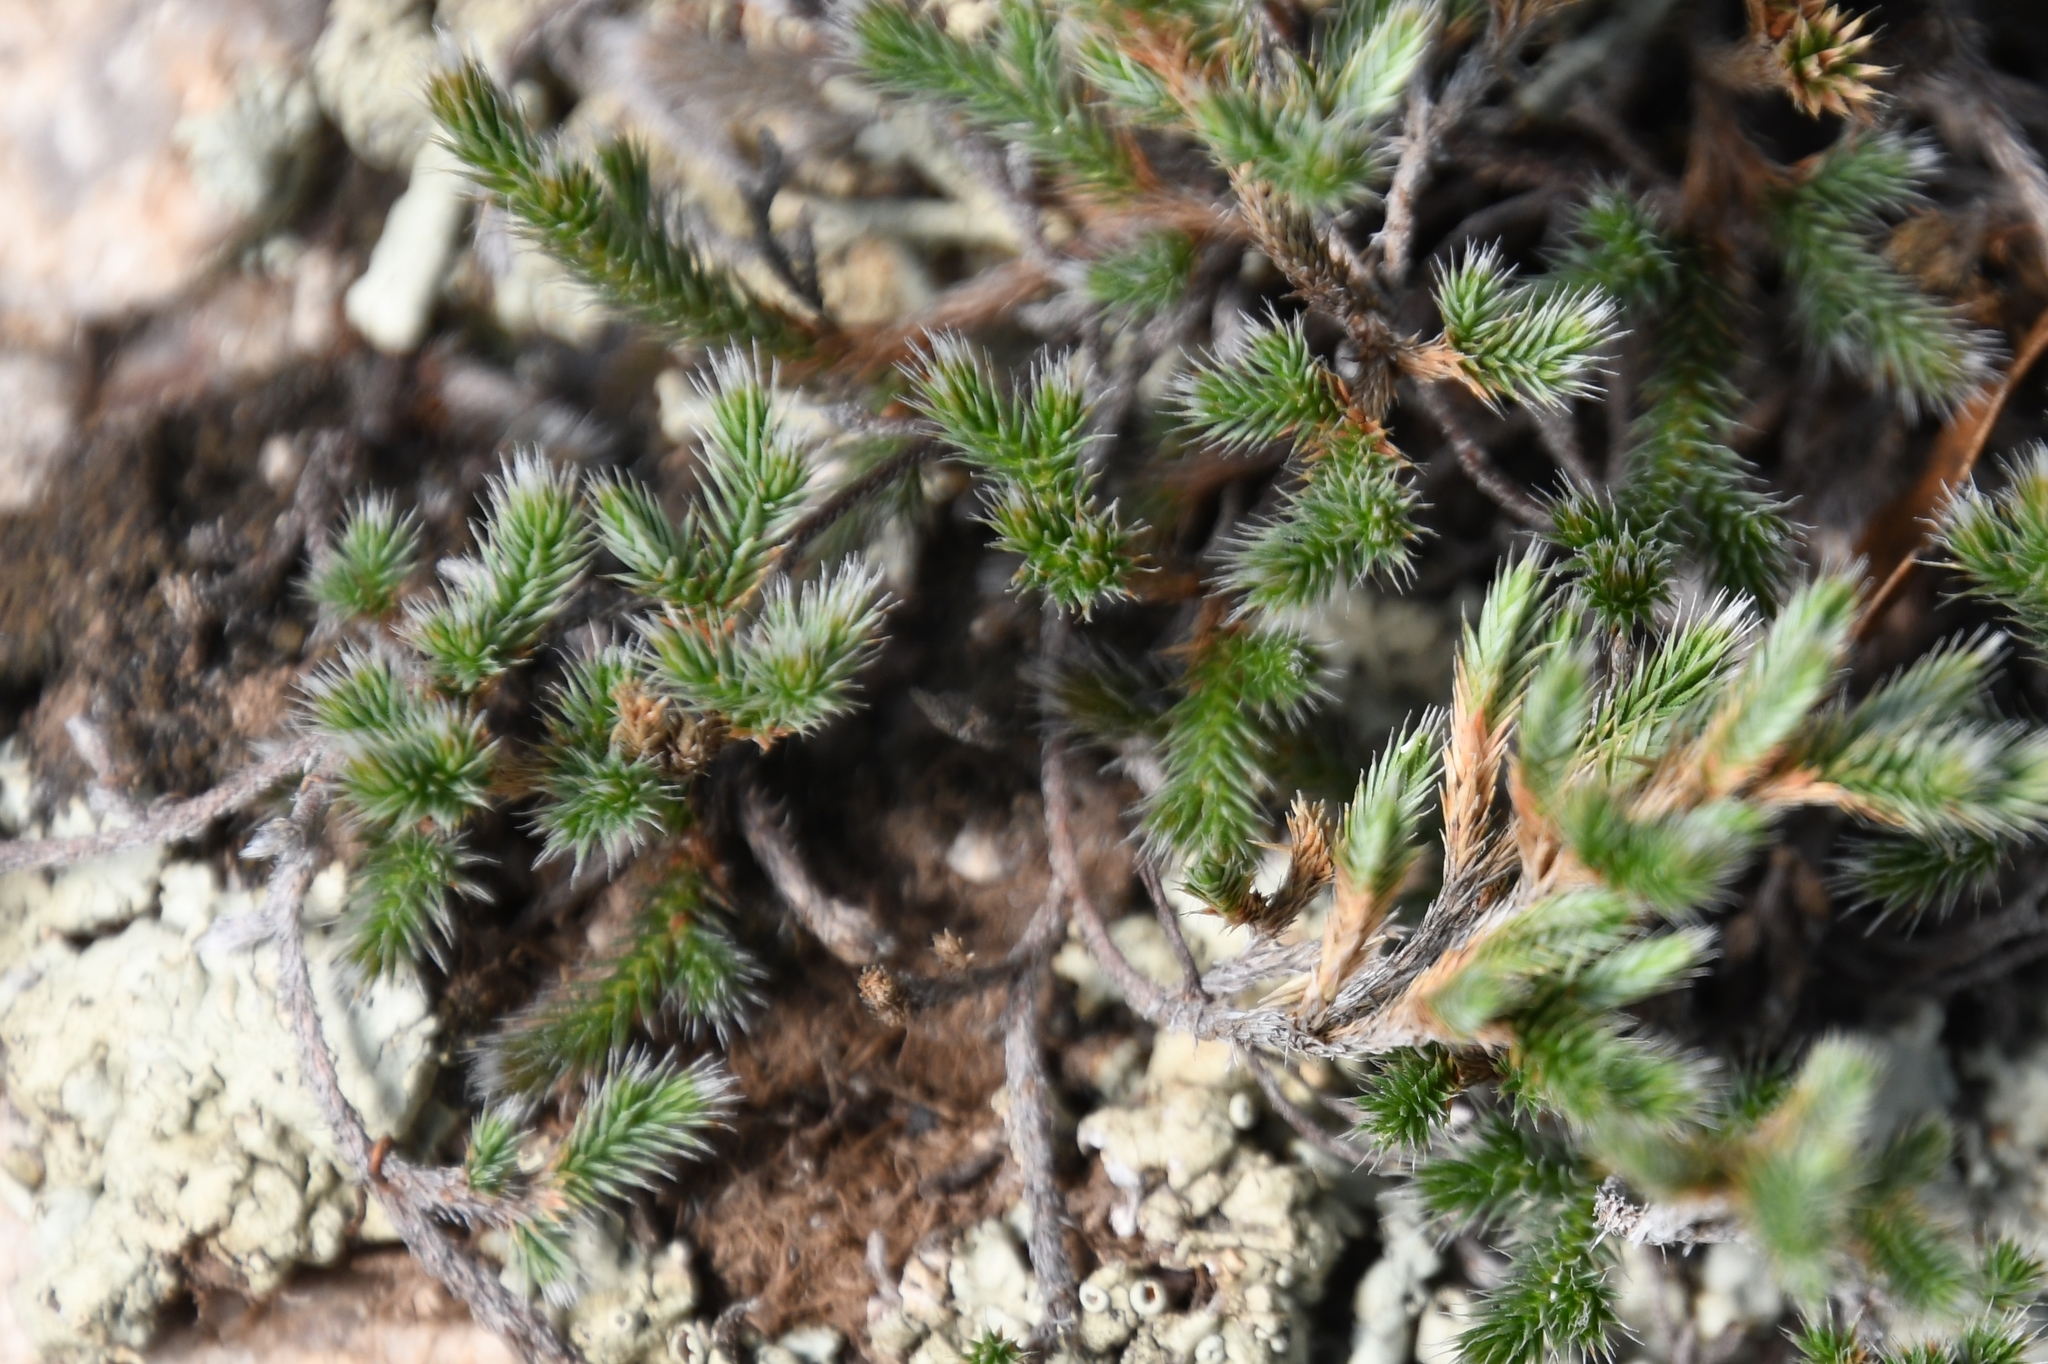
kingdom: Plantae
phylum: Tracheophyta
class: Lycopodiopsida
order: Selaginellales
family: Selaginellaceae
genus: Selaginella
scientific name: Selaginella rupincola
